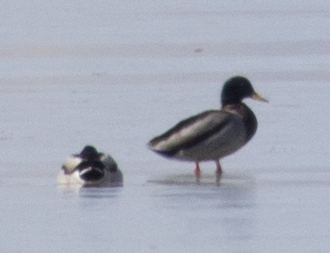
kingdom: Animalia
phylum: Chordata
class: Aves
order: Anseriformes
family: Anatidae
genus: Anas
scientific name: Anas platyrhynchos
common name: Mallard
